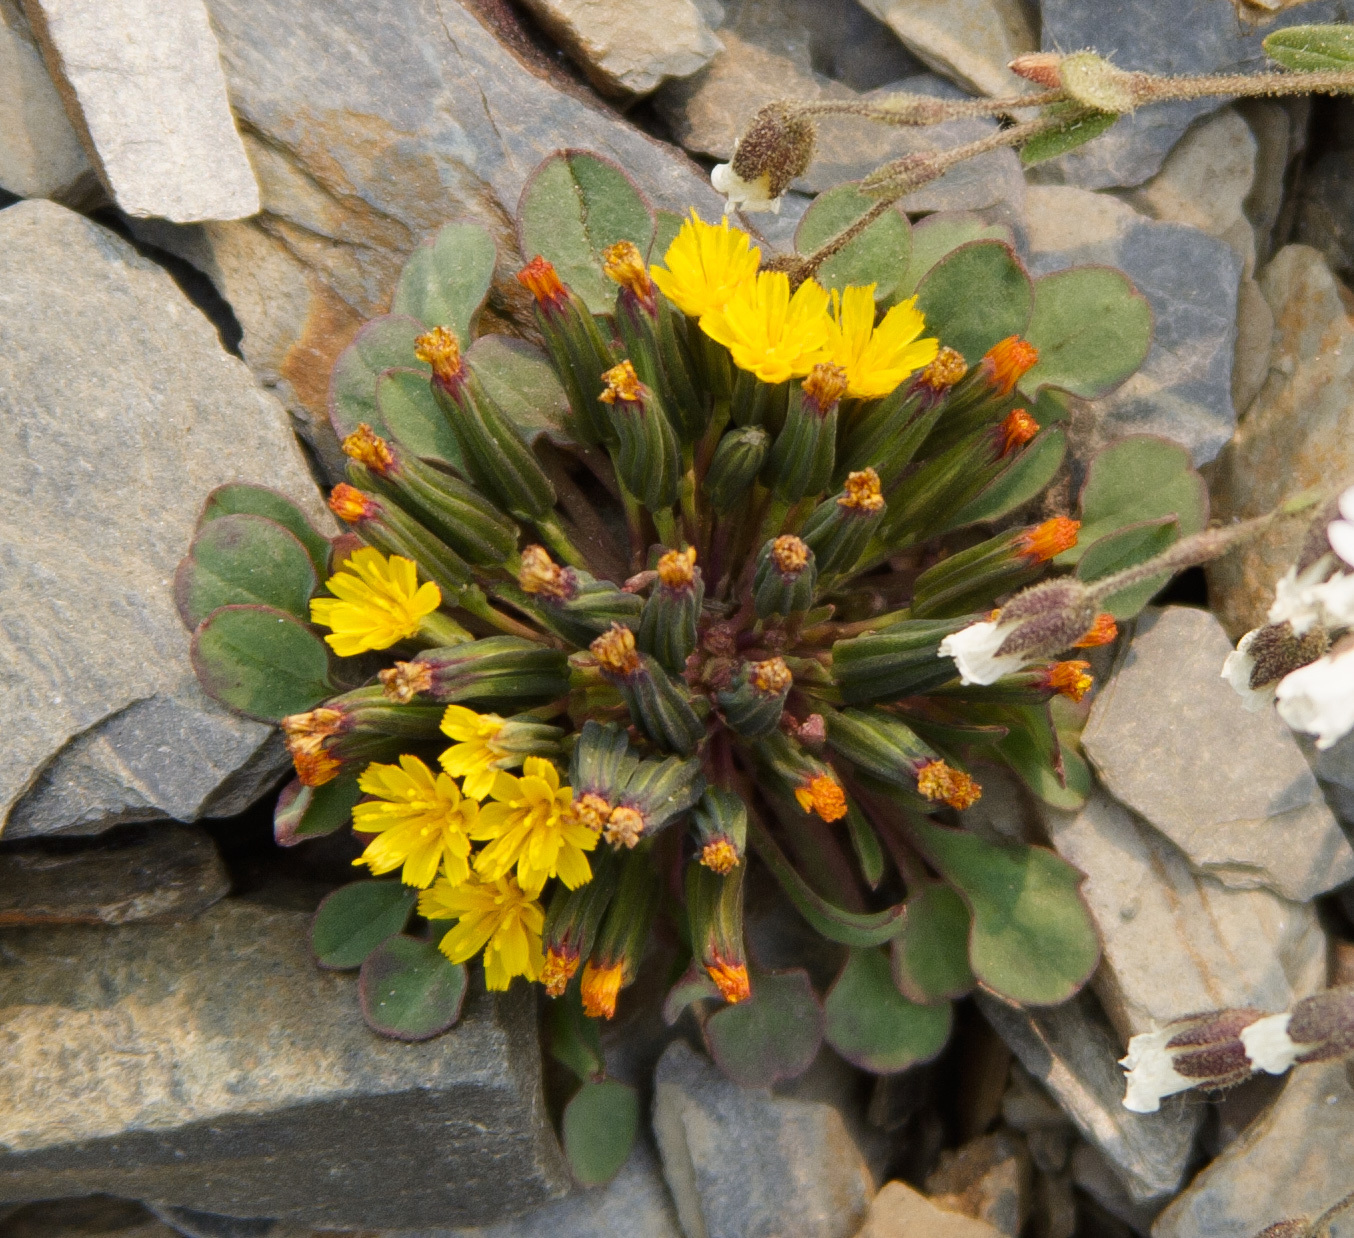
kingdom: Plantae
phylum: Tracheophyta
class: Magnoliopsida
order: Asterales
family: Asteraceae
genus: Askellia
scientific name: Askellia pygmaea
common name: Dwarf alpine hawksbeard
